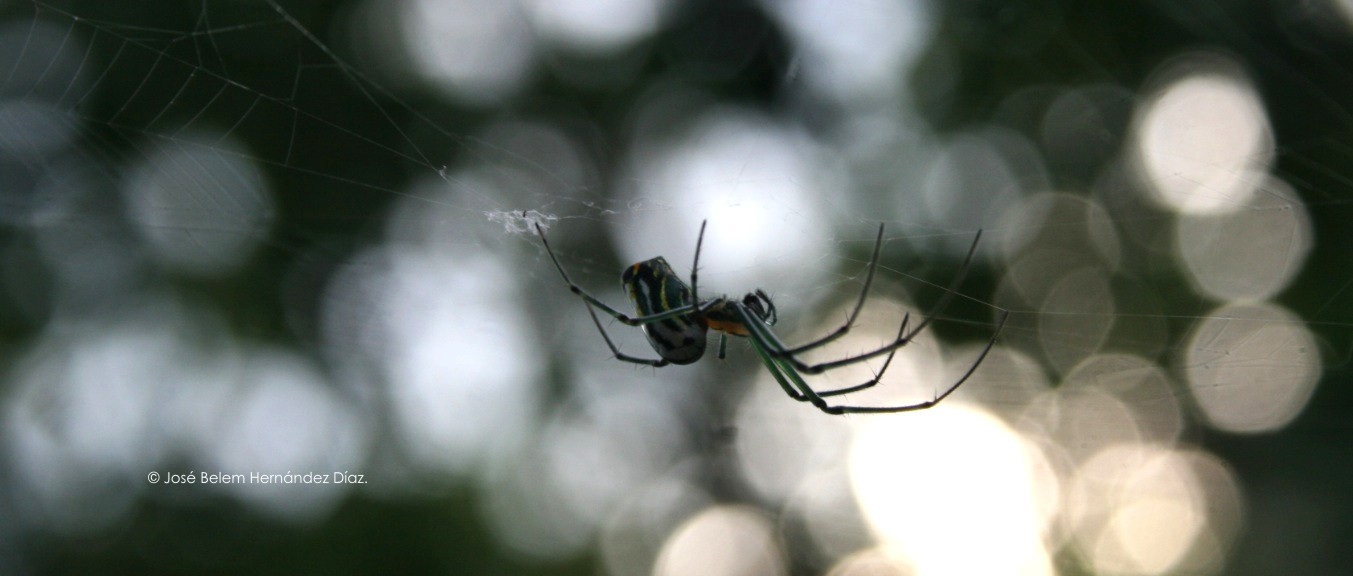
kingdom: Animalia
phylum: Arthropoda
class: Arachnida
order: Araneae
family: Tetragnathidae
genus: Leucauge
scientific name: Leucauge argyrobapta
